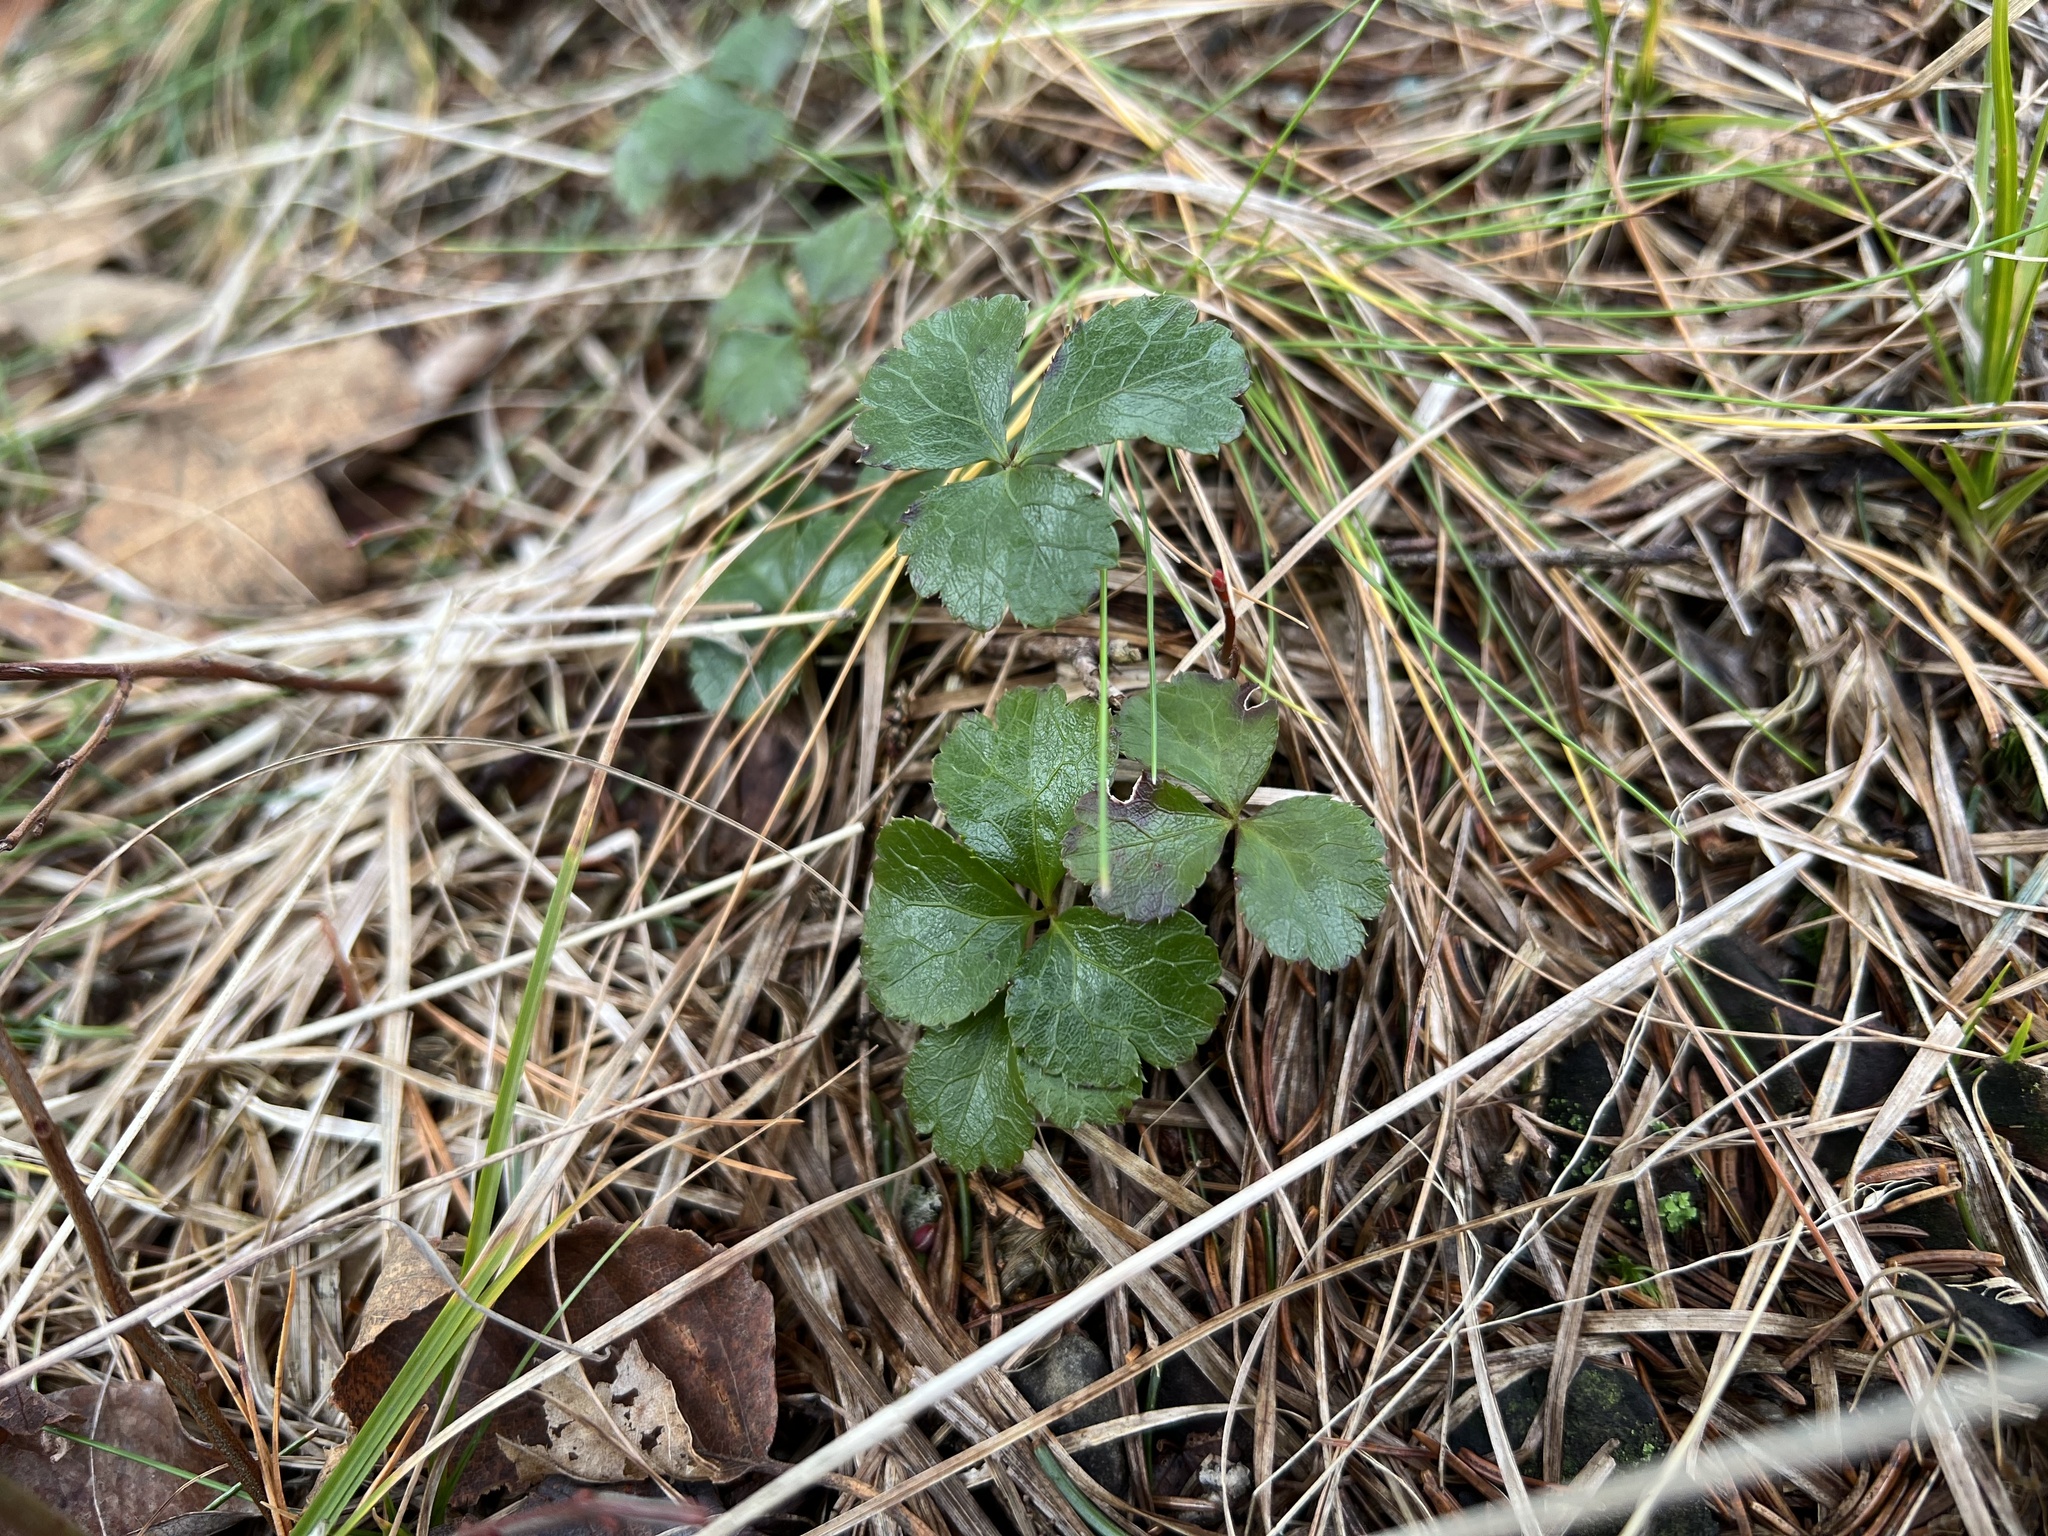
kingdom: Plantae
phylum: Tracheophyta
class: Magnoliopsida
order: Ranunculales
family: Ranunculaceae
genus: Coptis
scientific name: Coptis trifolia
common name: Canker-root
